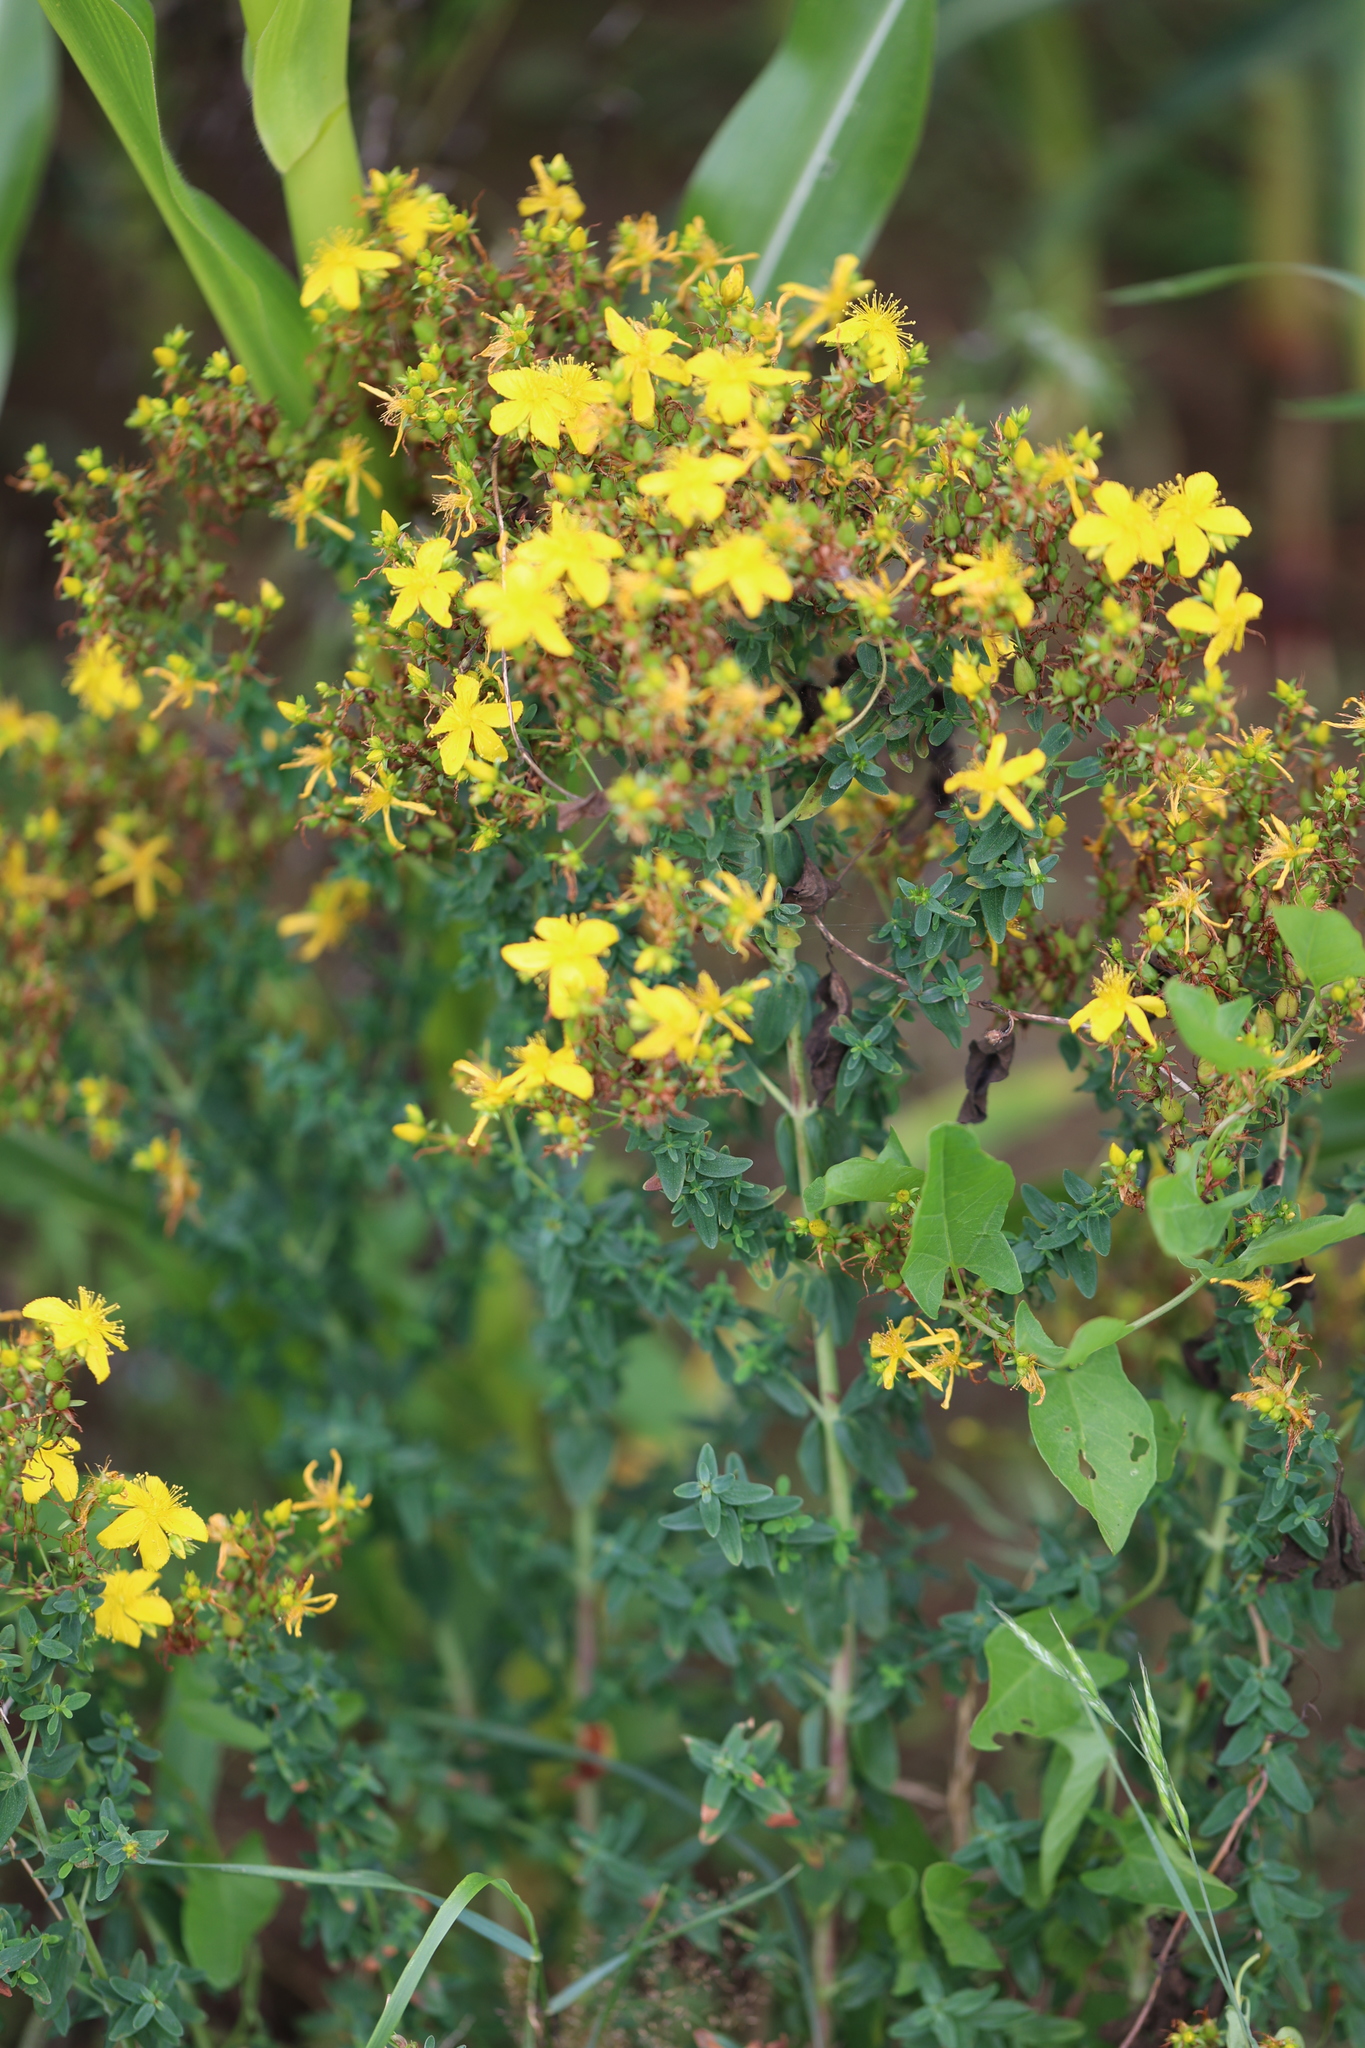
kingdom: Plantae
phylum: Tracheophyta
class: Magnoliopsida
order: Malpighiales
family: Hypericaceae
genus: Hypericum
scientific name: Hypericum perforatum
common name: Common st. johnswort
